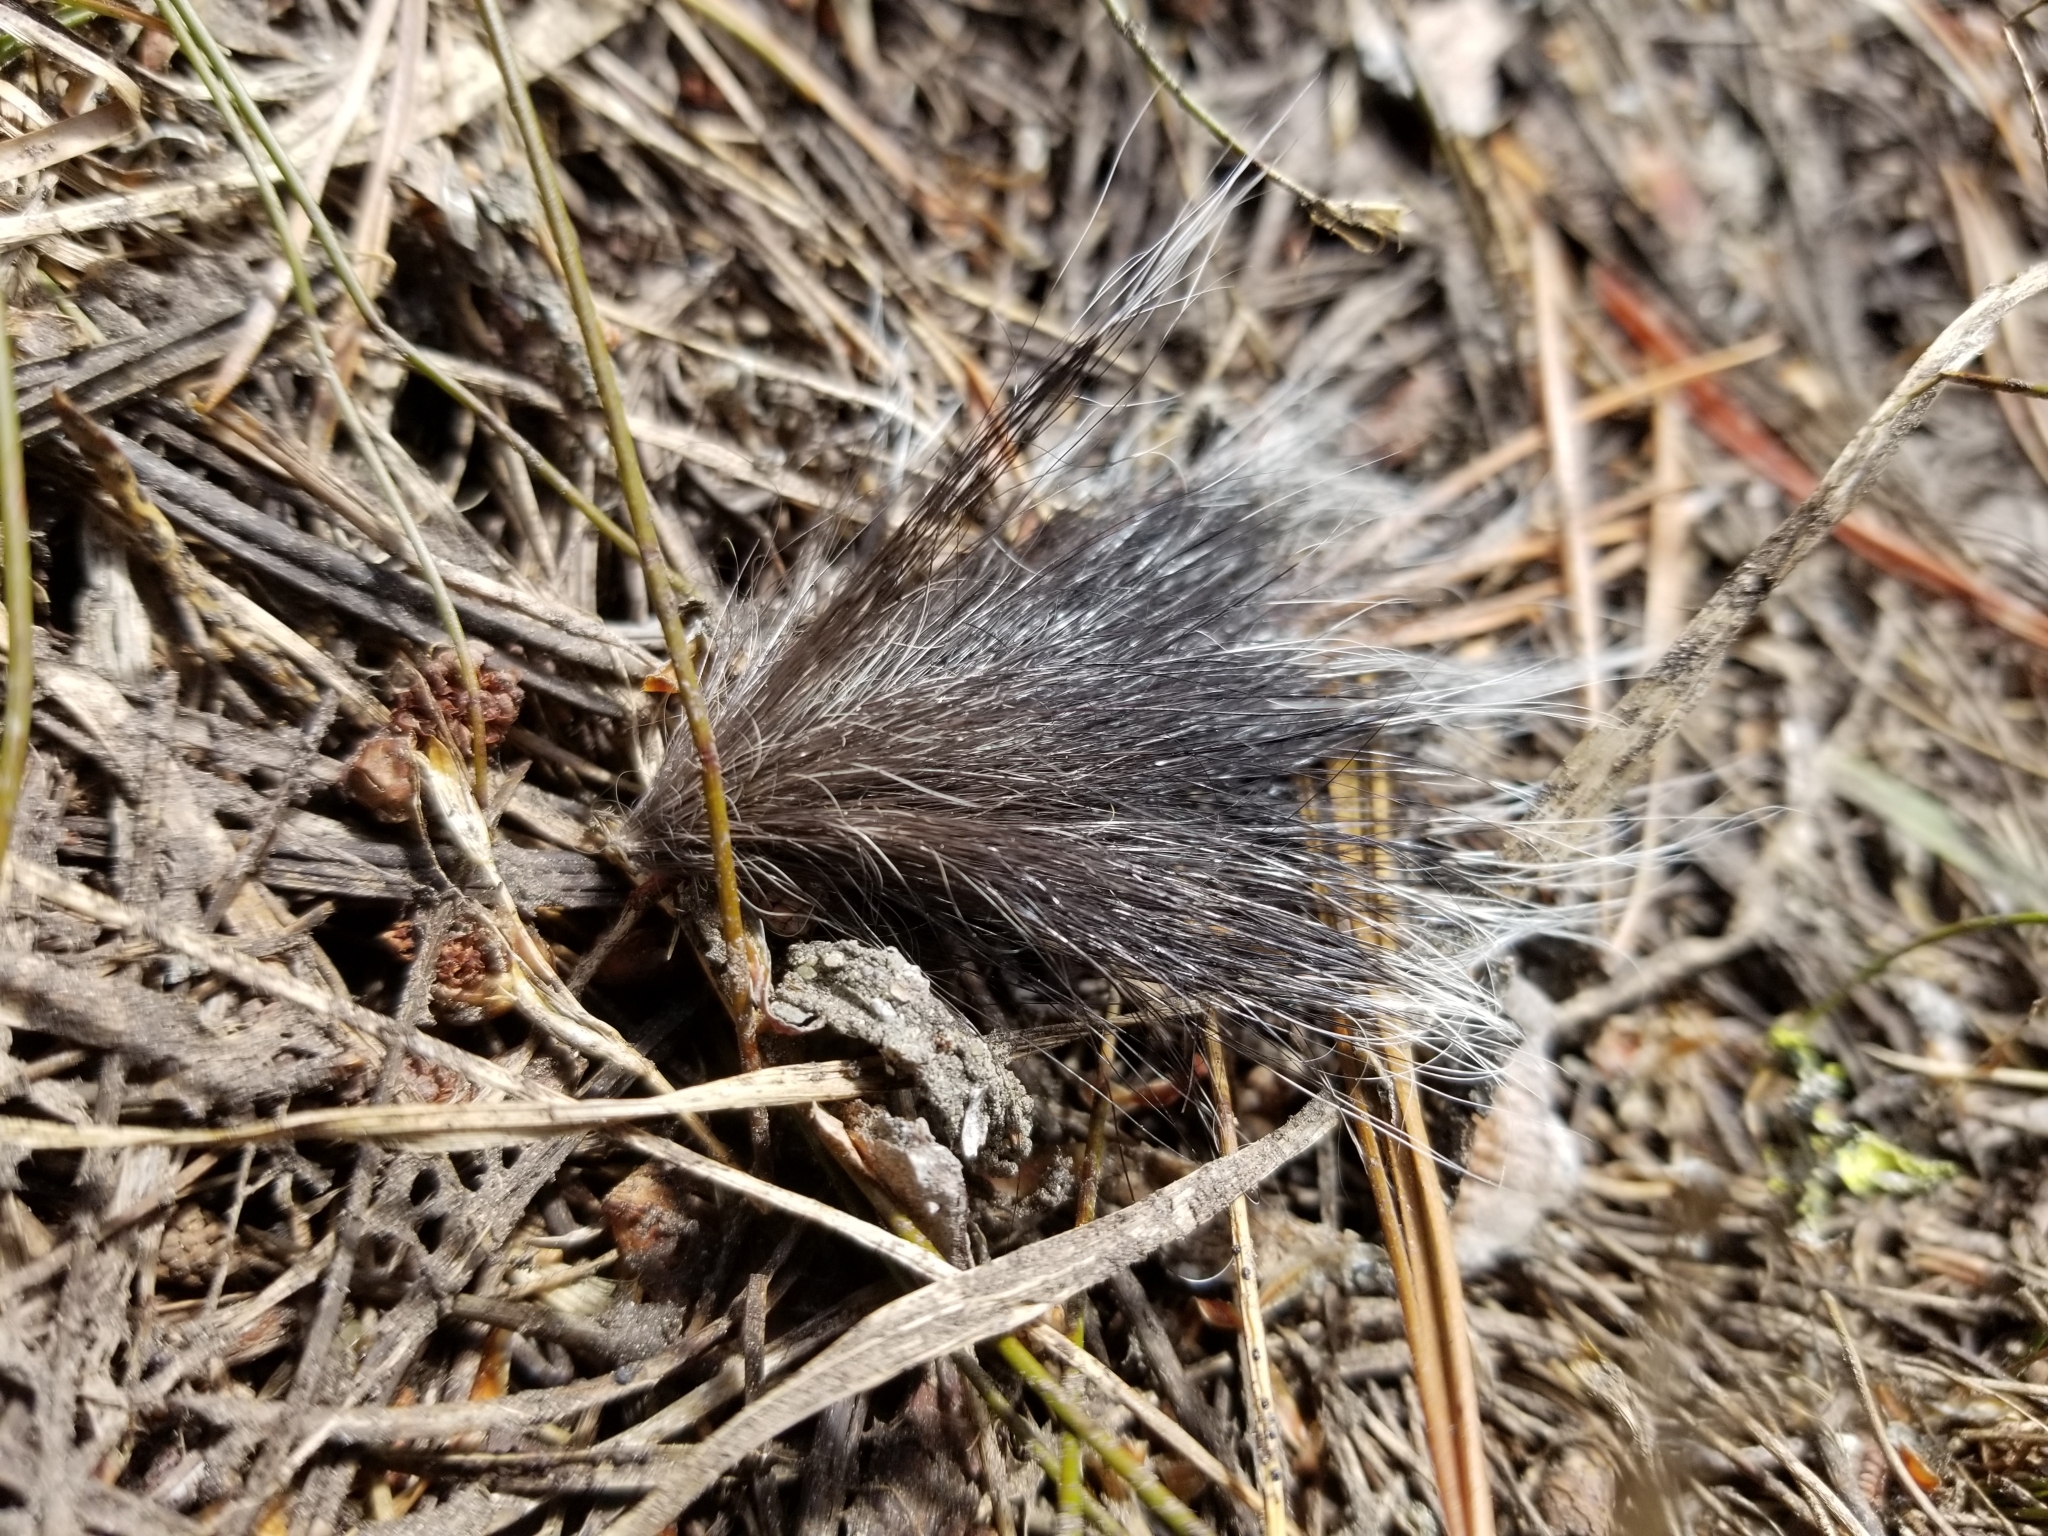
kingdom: Animalia
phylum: Chordata
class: Mammalia
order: Carnivora
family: Mephitidae
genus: Mephitis
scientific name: Mephitis mephitis
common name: Striped skunk
